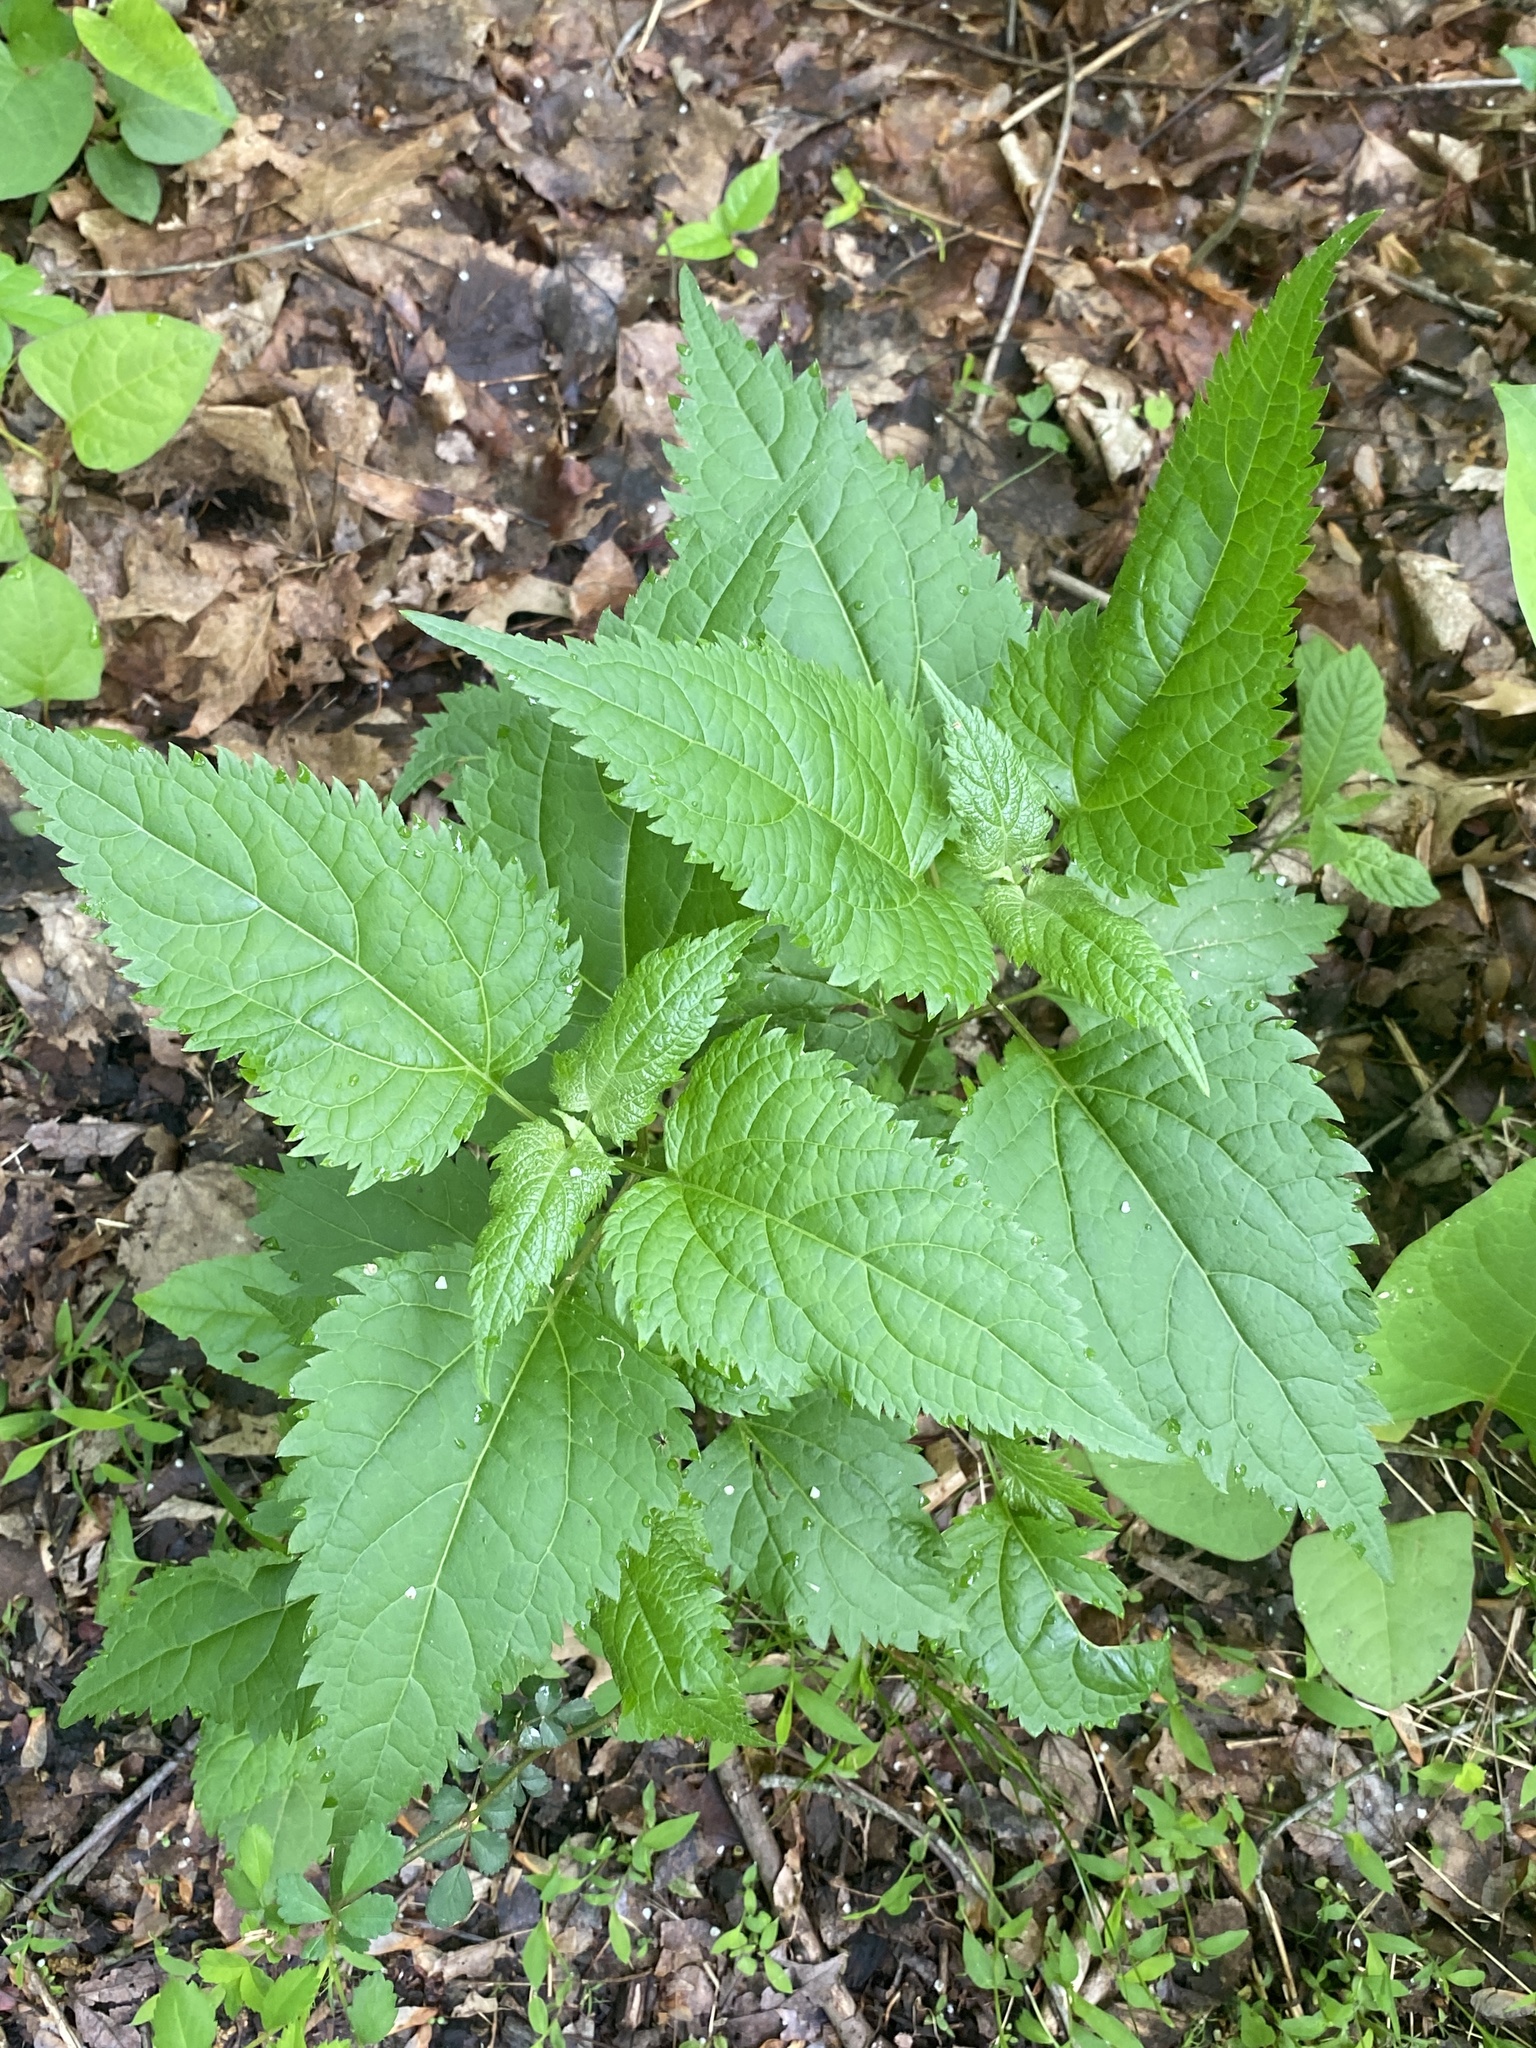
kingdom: Plantae
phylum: Tracheophyta
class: Magnoliopsida
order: Asterales
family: Asteraceae
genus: Ageratina
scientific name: Ageratina altissima
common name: White snakeroot
